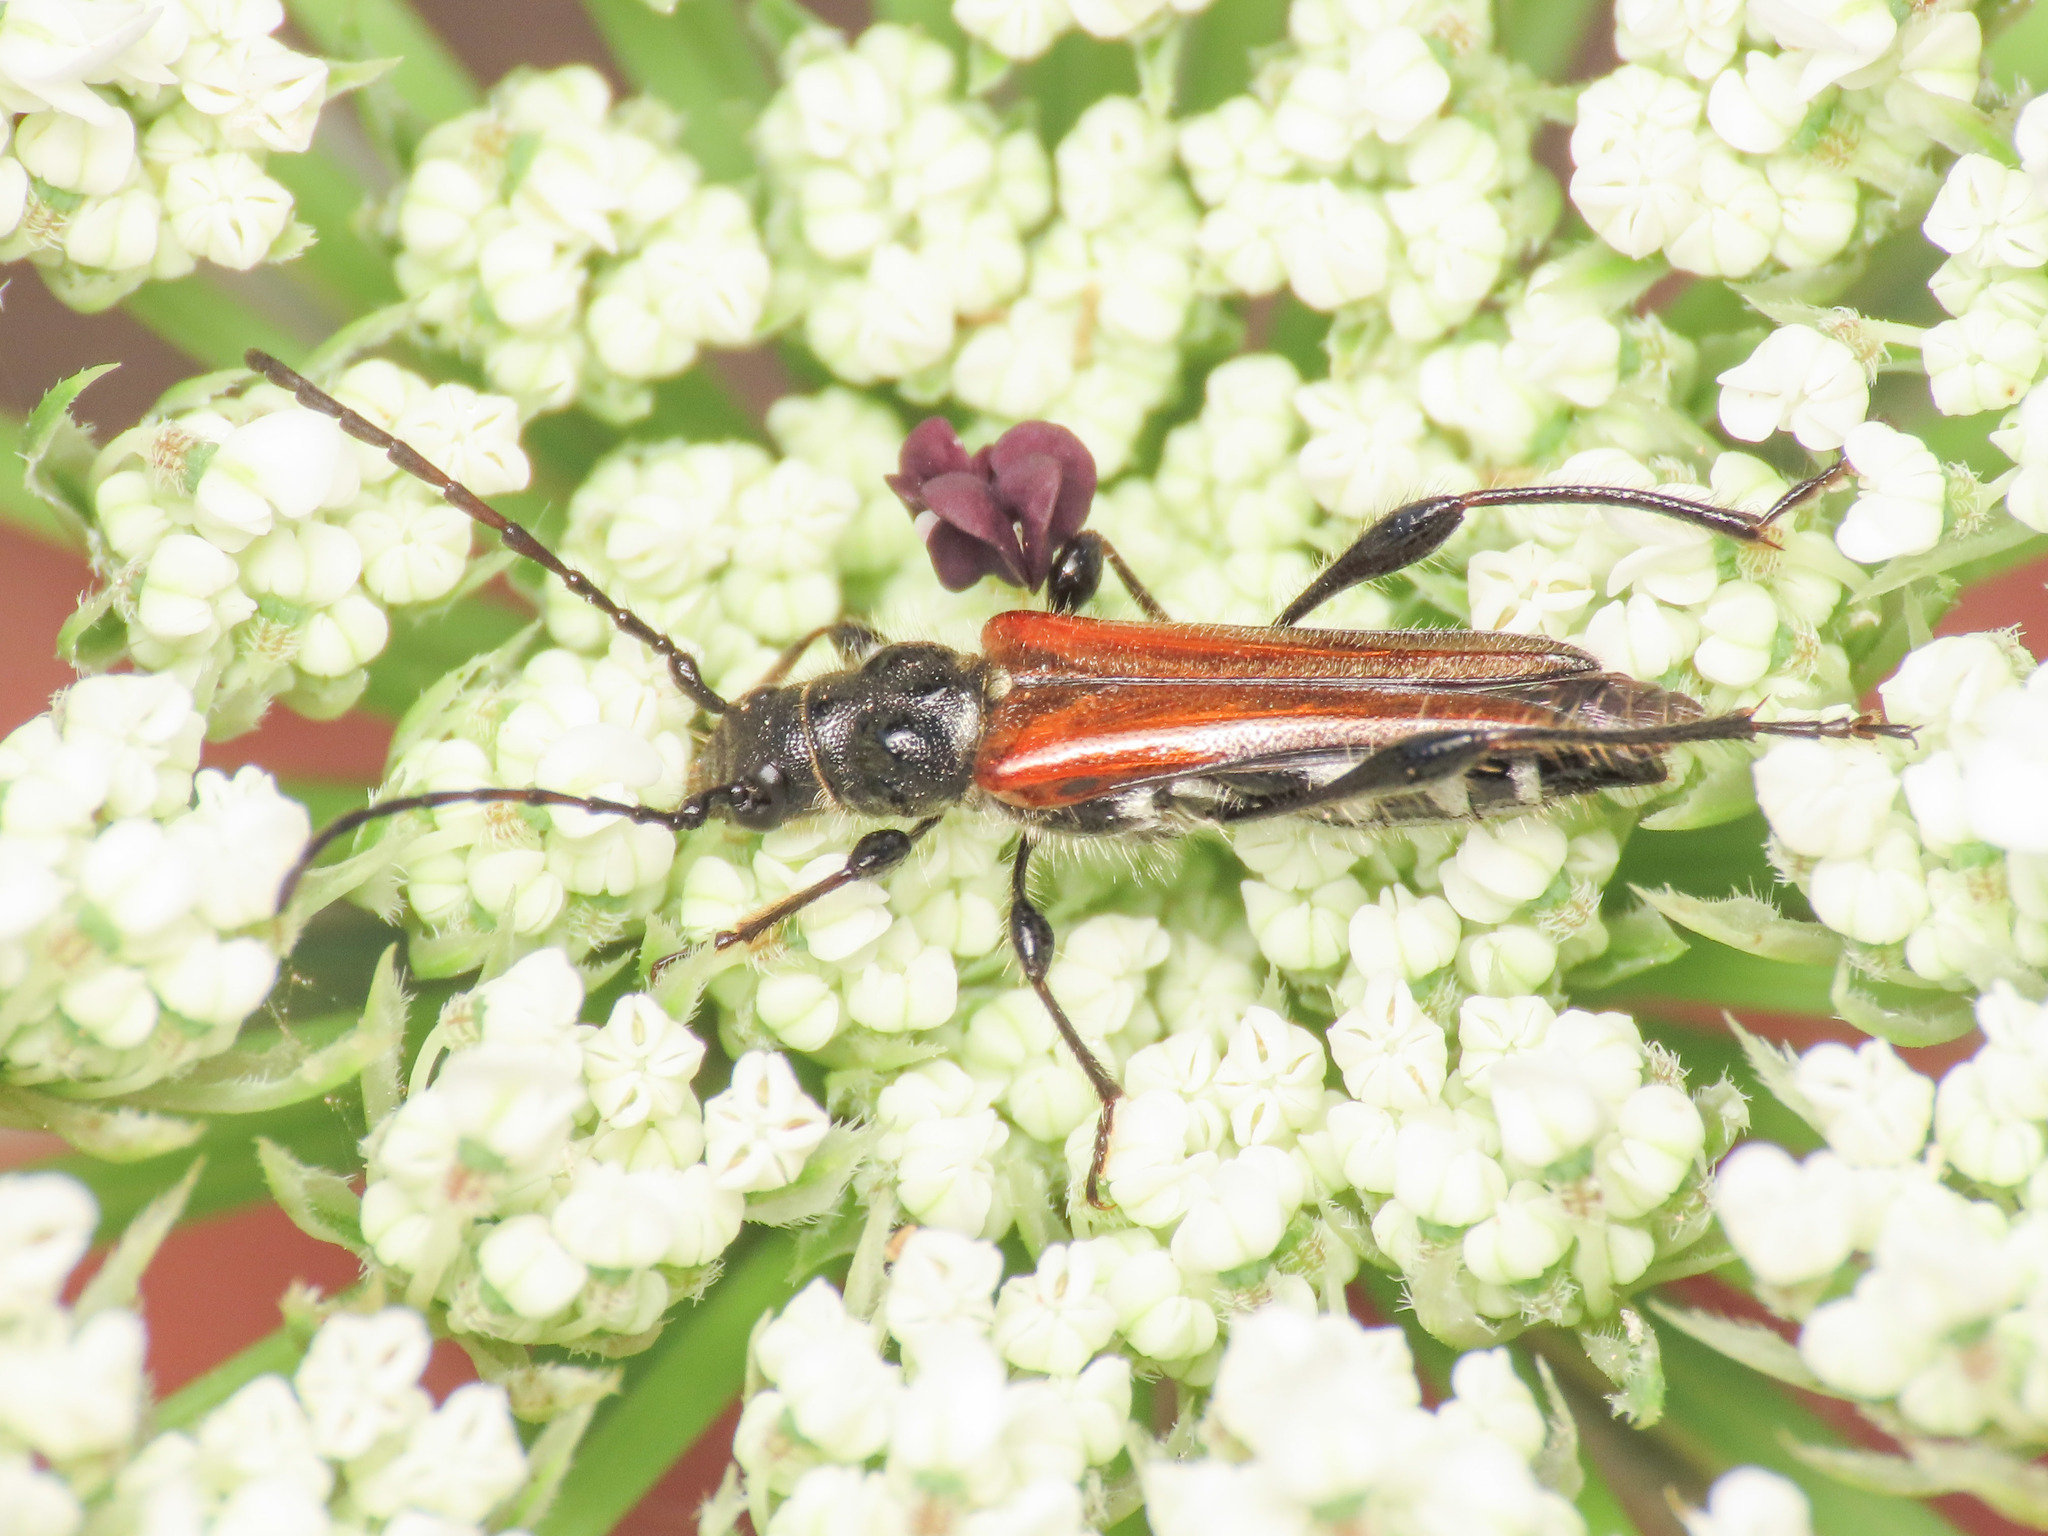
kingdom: Animalia
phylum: Arthropoda
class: Insecta
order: Coleoptera
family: Cerambycidae
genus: Stenopterus
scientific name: Stenopterus ater
